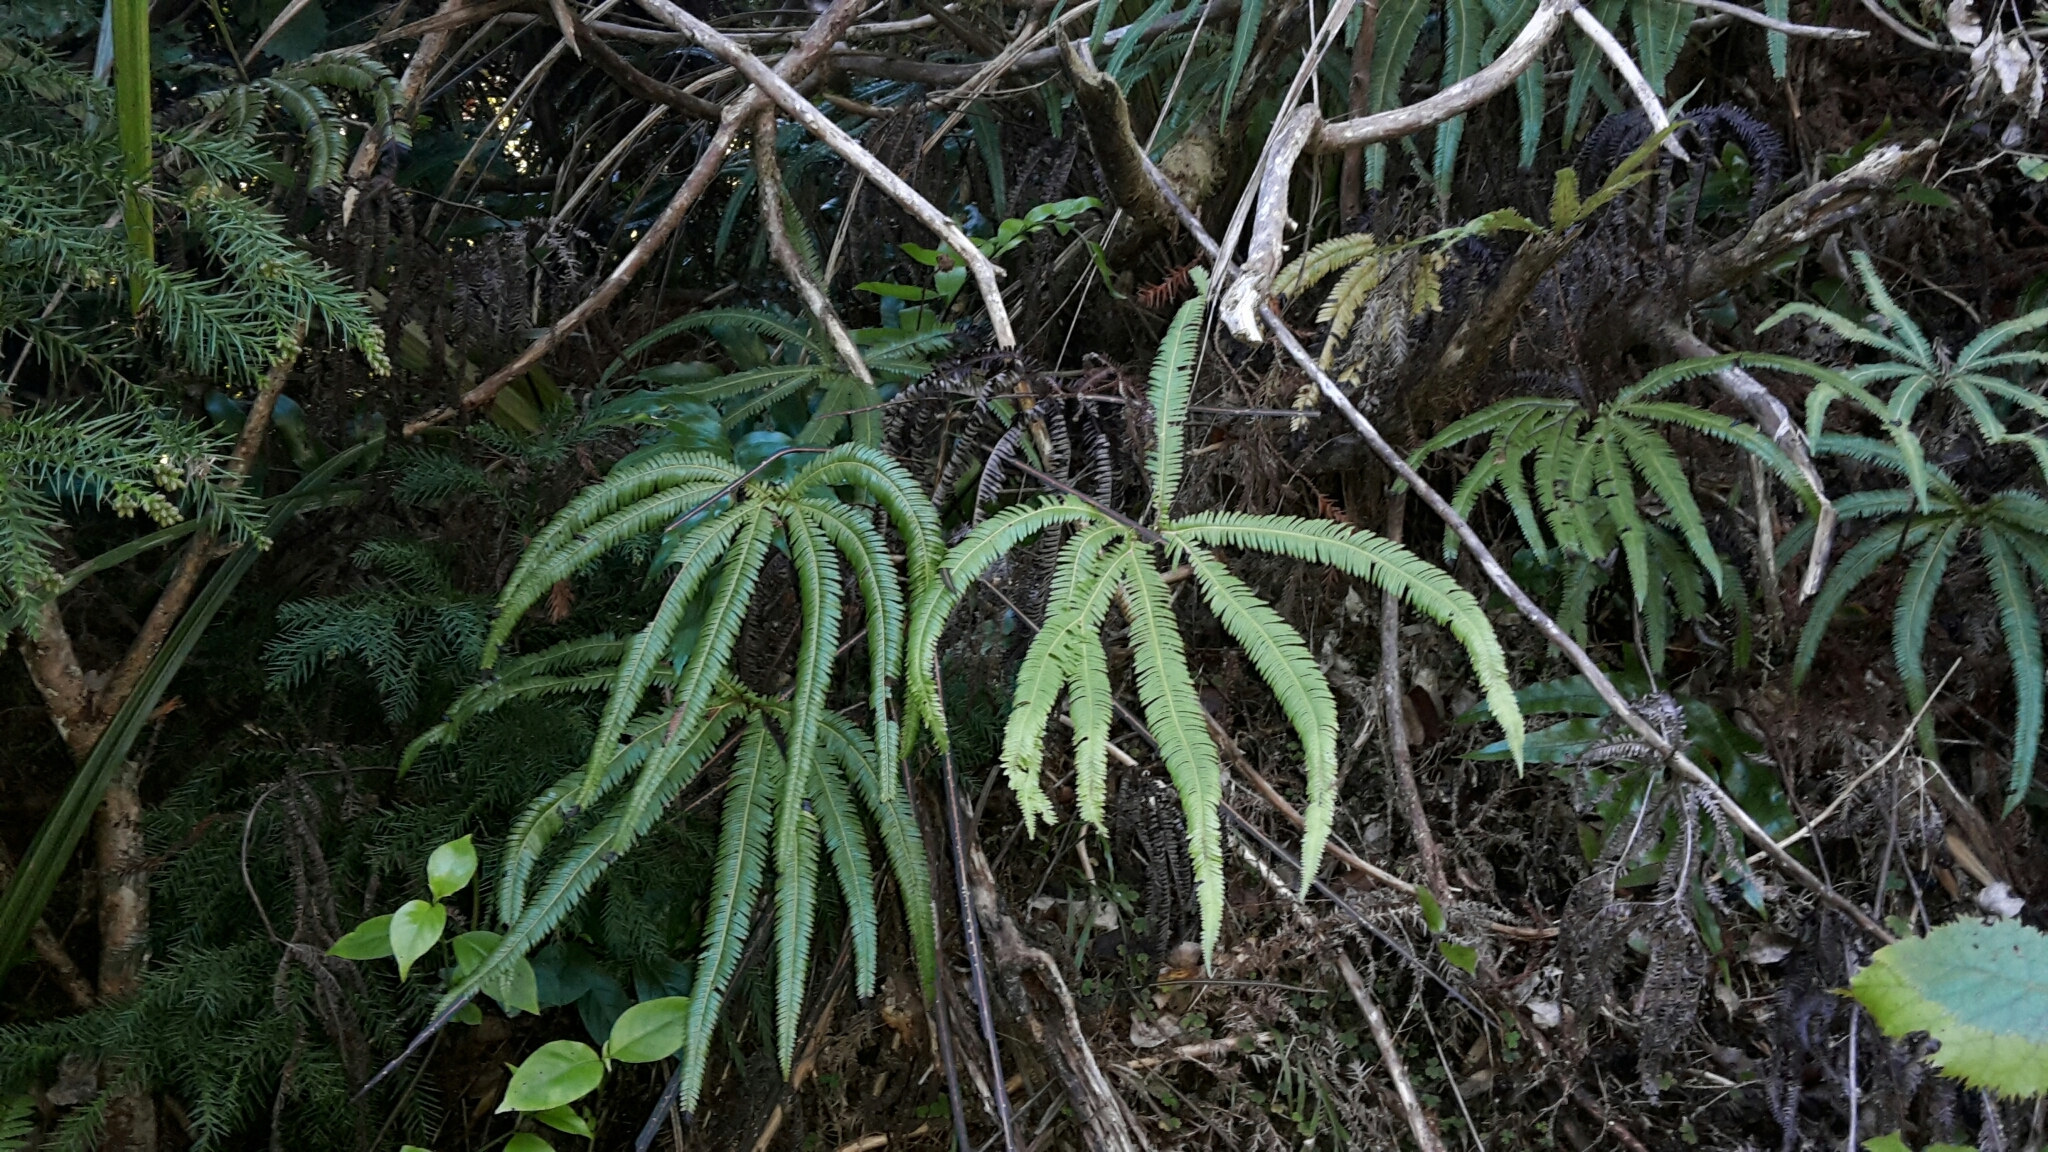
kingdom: Plantae
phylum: Tracheophyta
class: Polypodiopsida
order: Gleicheniales
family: Gleicheniaceae
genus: Sticherus
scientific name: Sticherus cunninghamii
